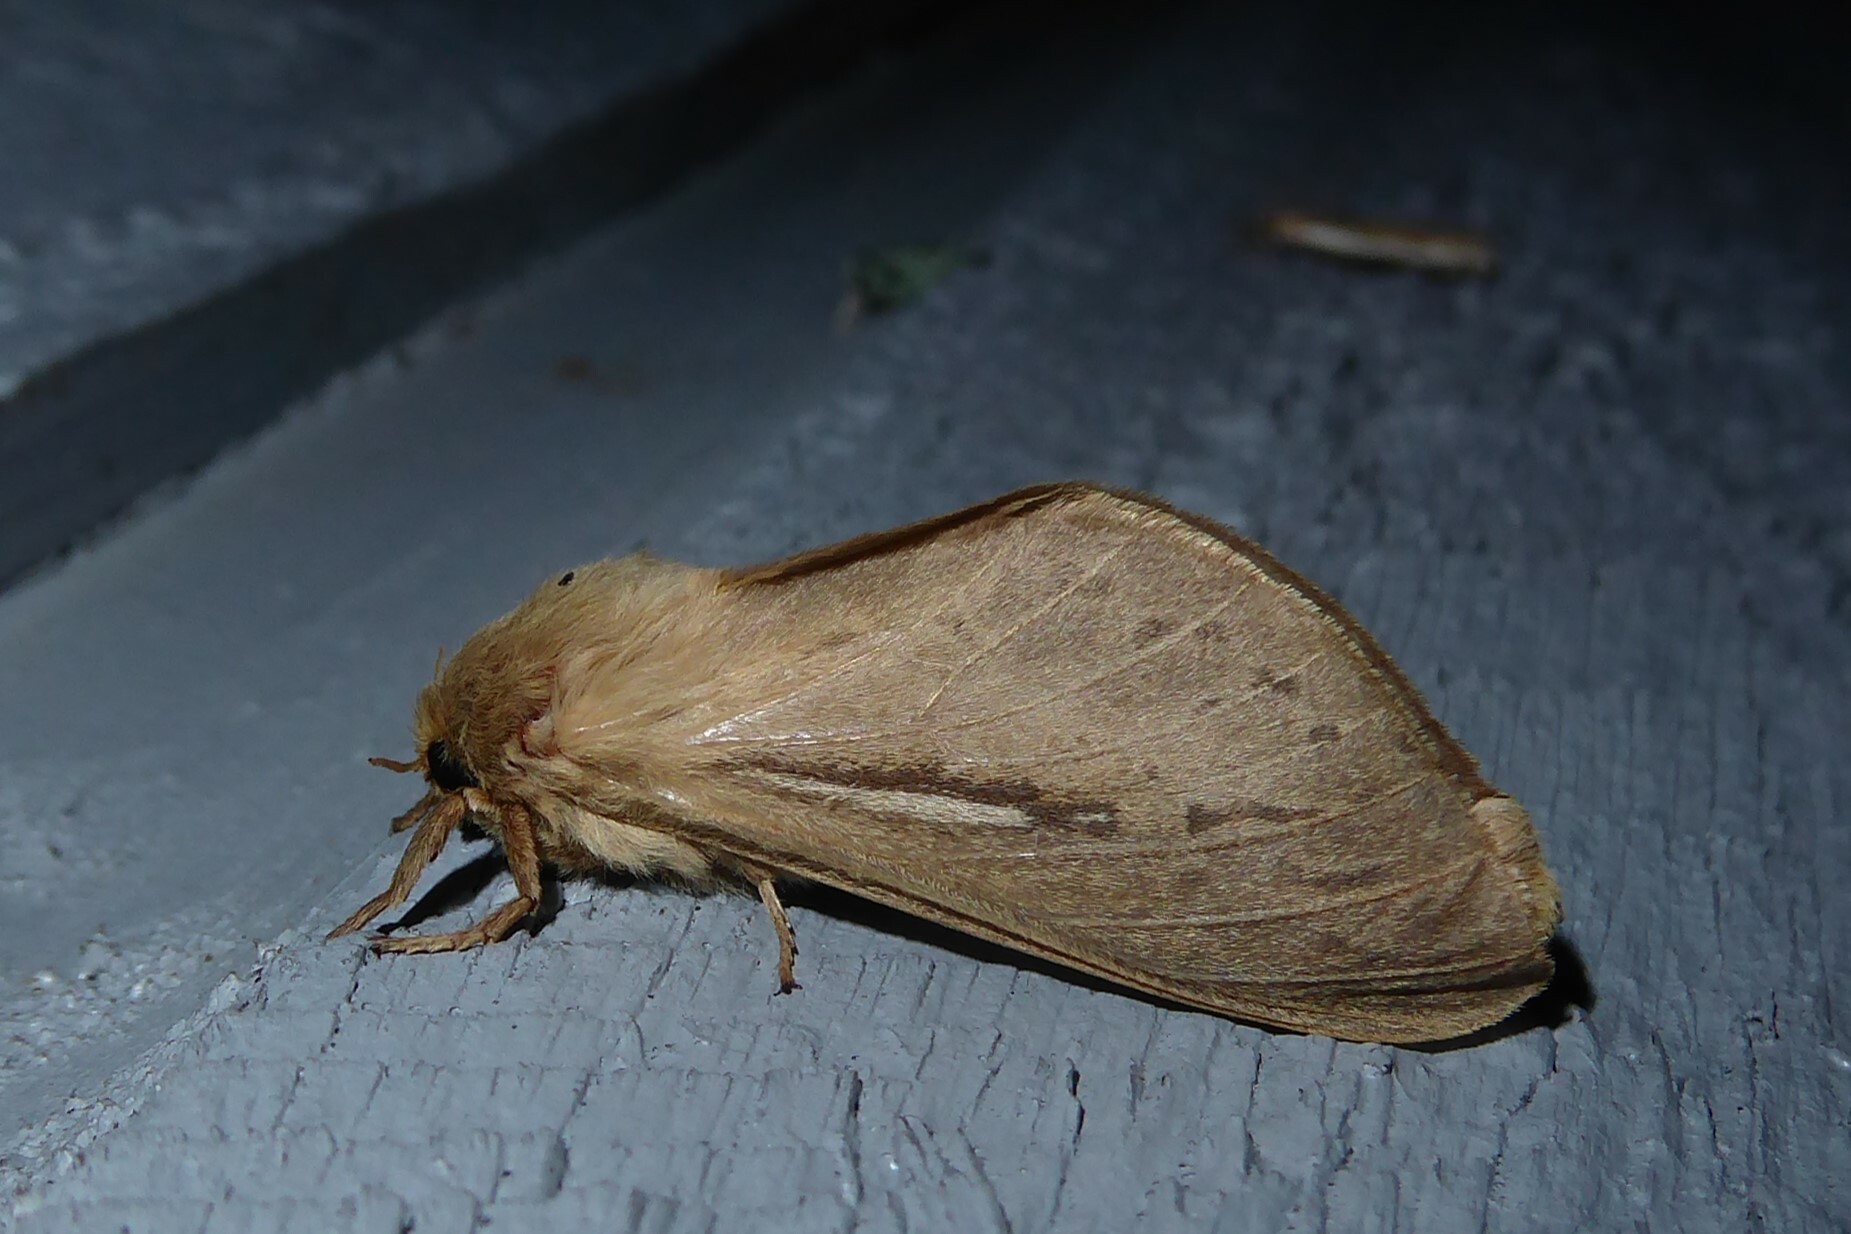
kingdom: Animalia
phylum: Arthropoda
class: Insecta
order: Lepidoptera
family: Hepialidae
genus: Wiseana
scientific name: Wiseana umbraculatus
